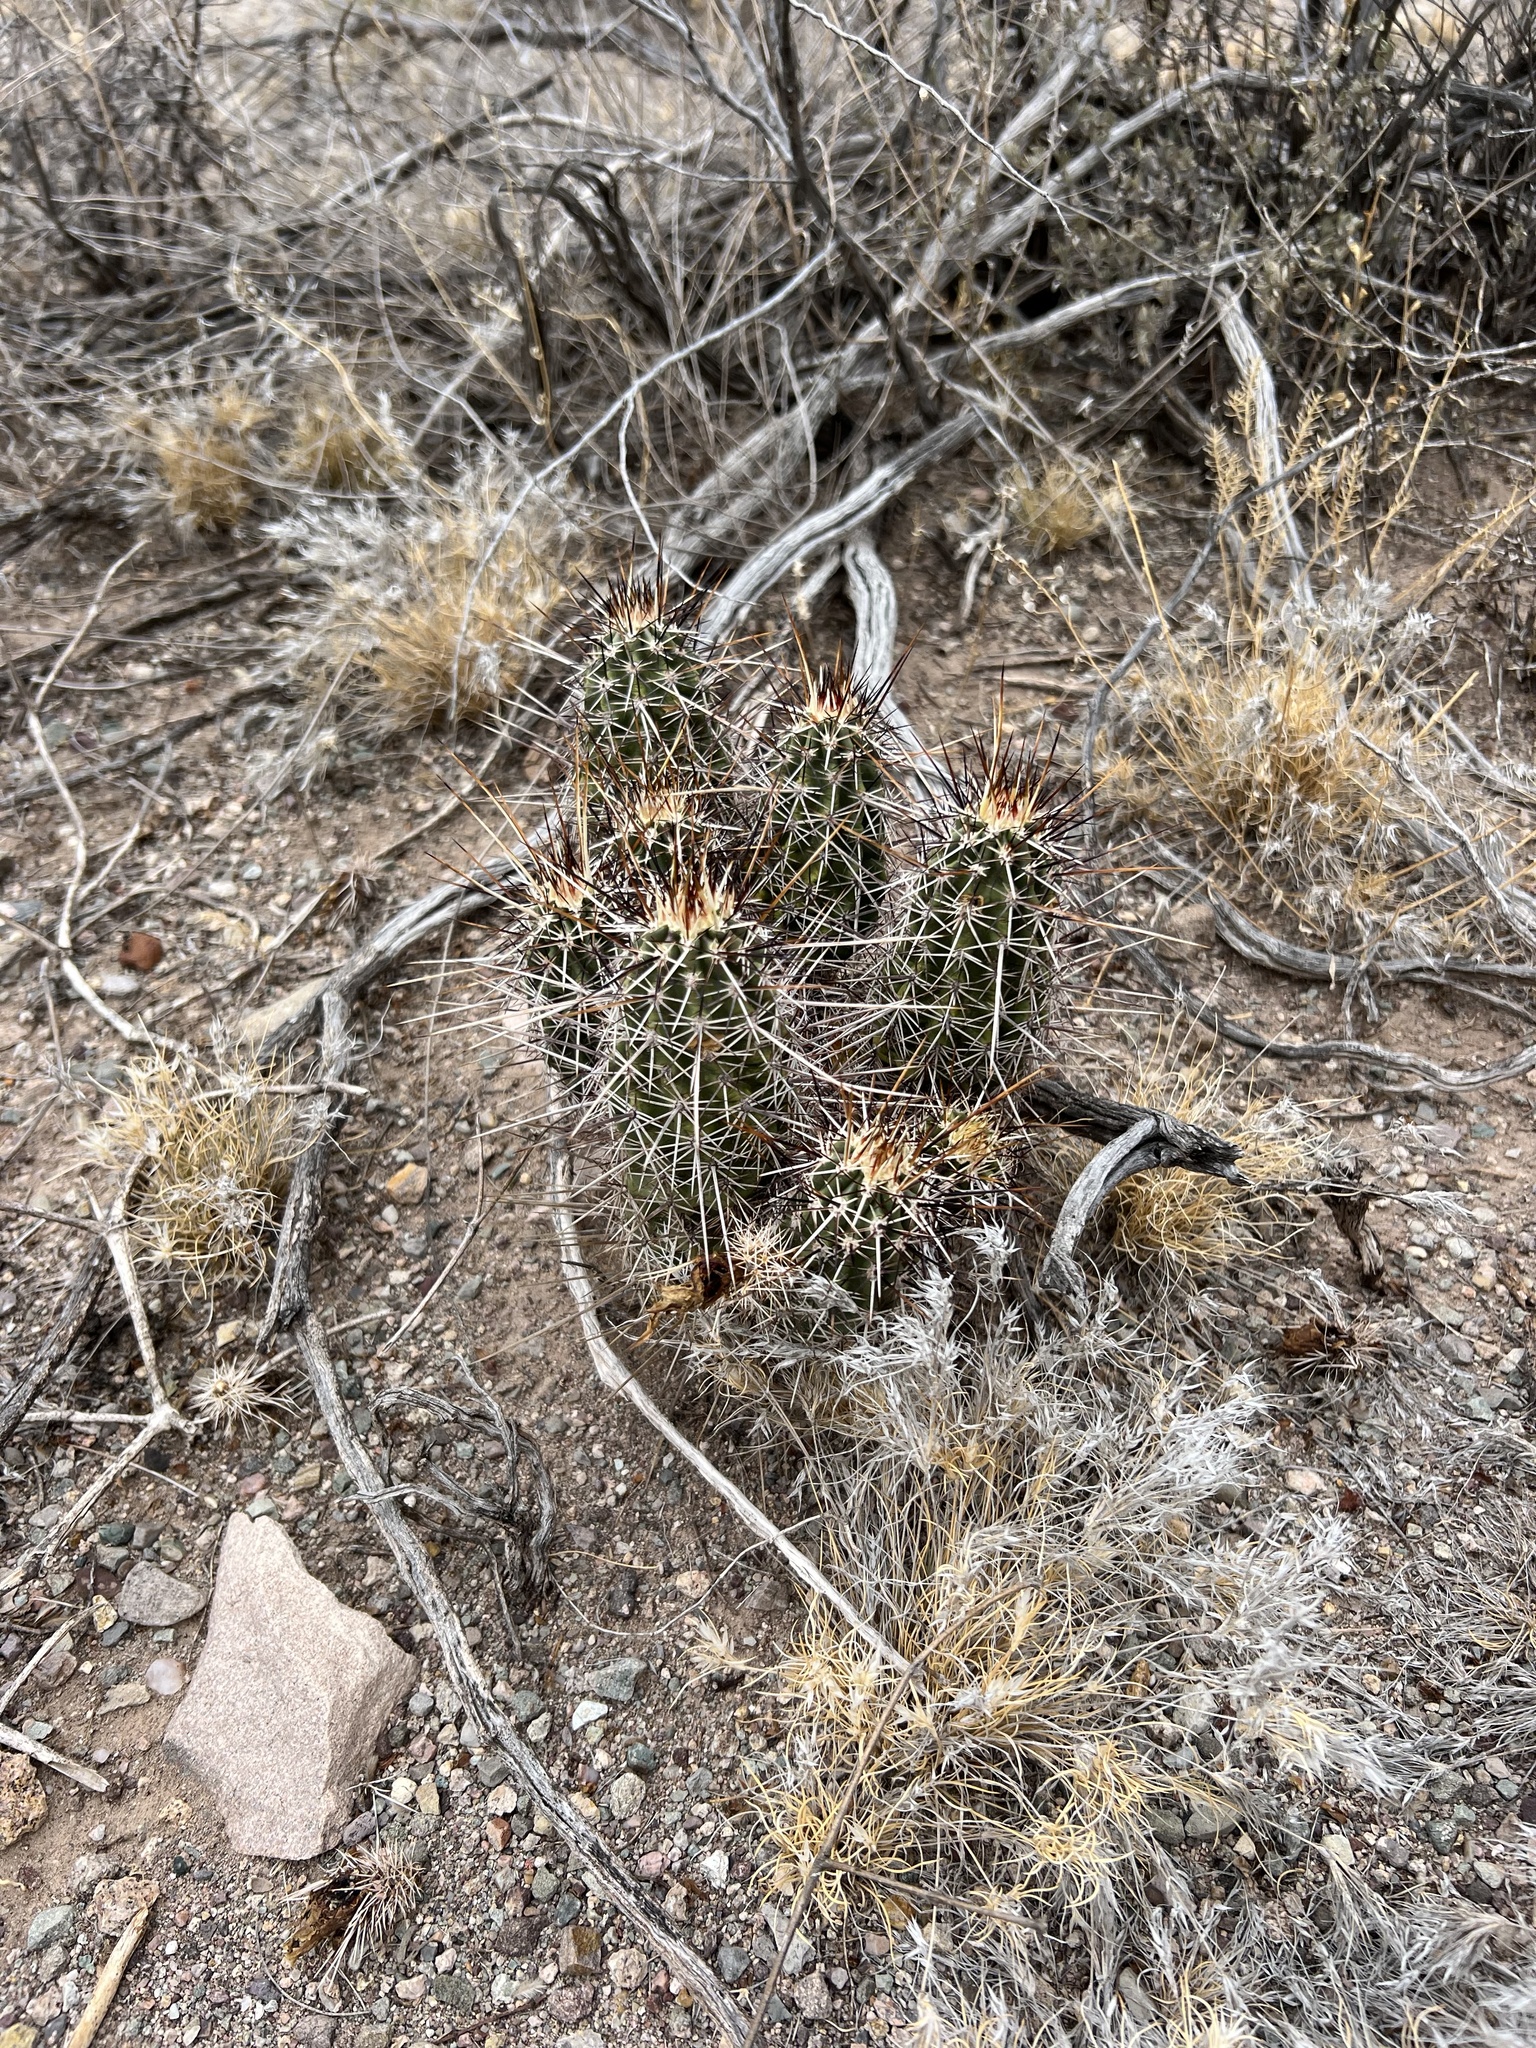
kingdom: Plantae
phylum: Tracheophyta
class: Magnoliopsida
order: Caryophyllales
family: Cactaceae
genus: Echinocereus
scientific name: Echinocereus fasciculatus
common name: Bundle hedgehog
